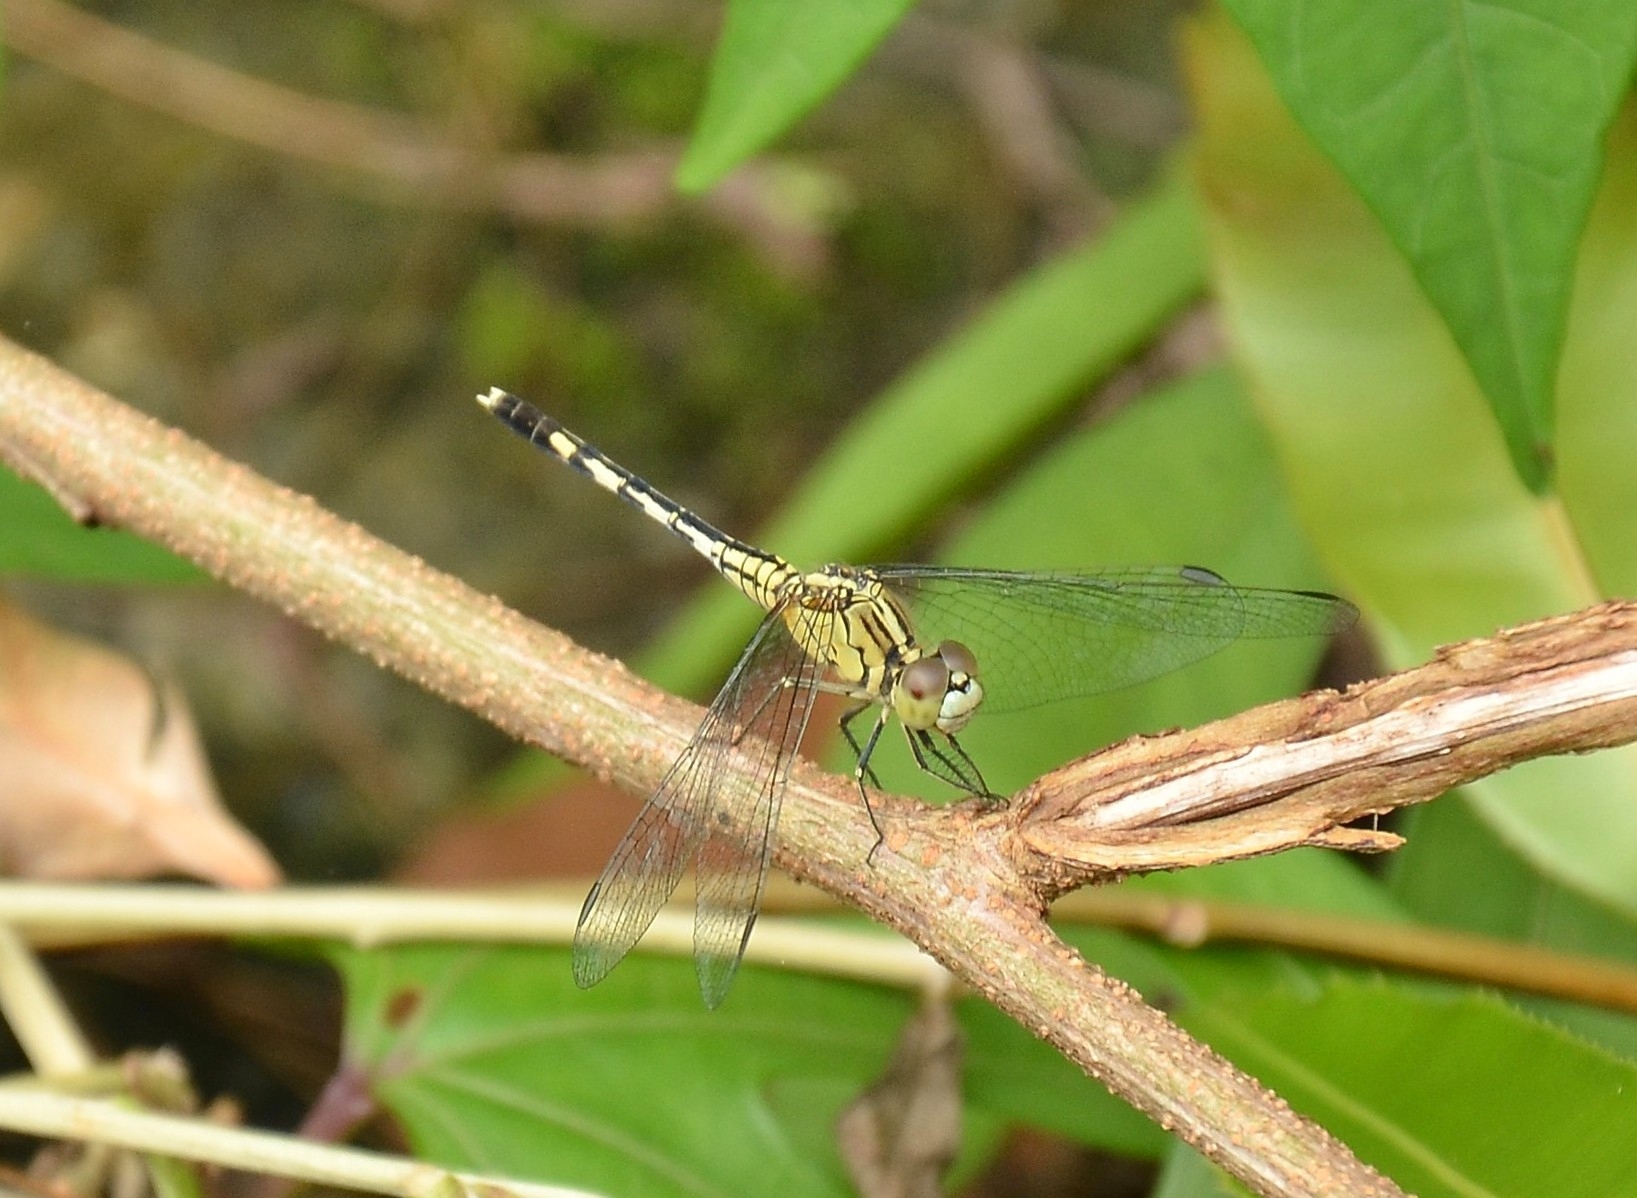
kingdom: Animalia
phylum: Arthropoda
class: Insecta
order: Odonata
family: Libellulidae
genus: Diplacodes
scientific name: Diplacodes trivialis
